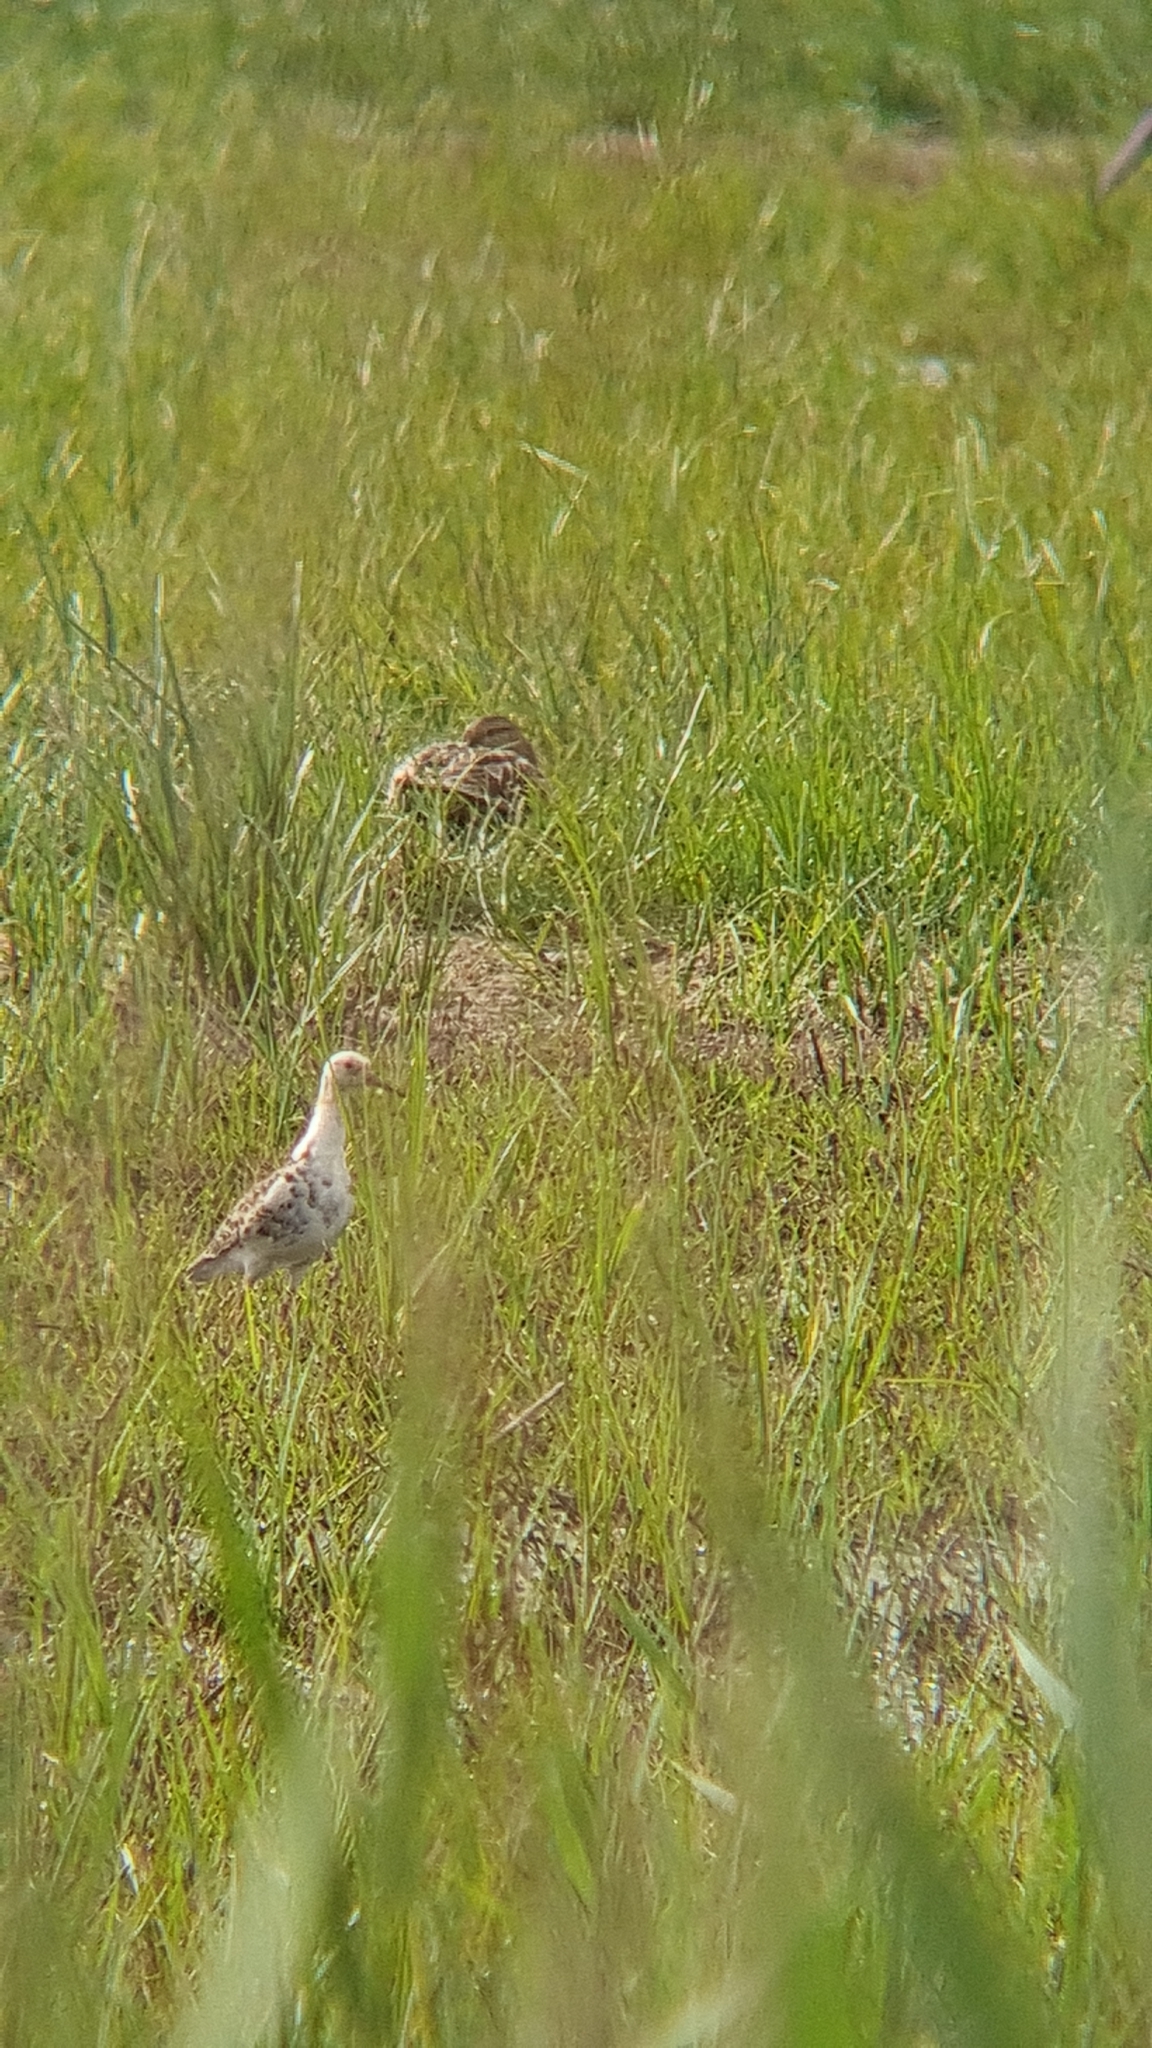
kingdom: Animalia
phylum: Chordata
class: Aves
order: Charadriiformes
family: Scolopacidae
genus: Calidris
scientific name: Calidris pugnax
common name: Ruff
